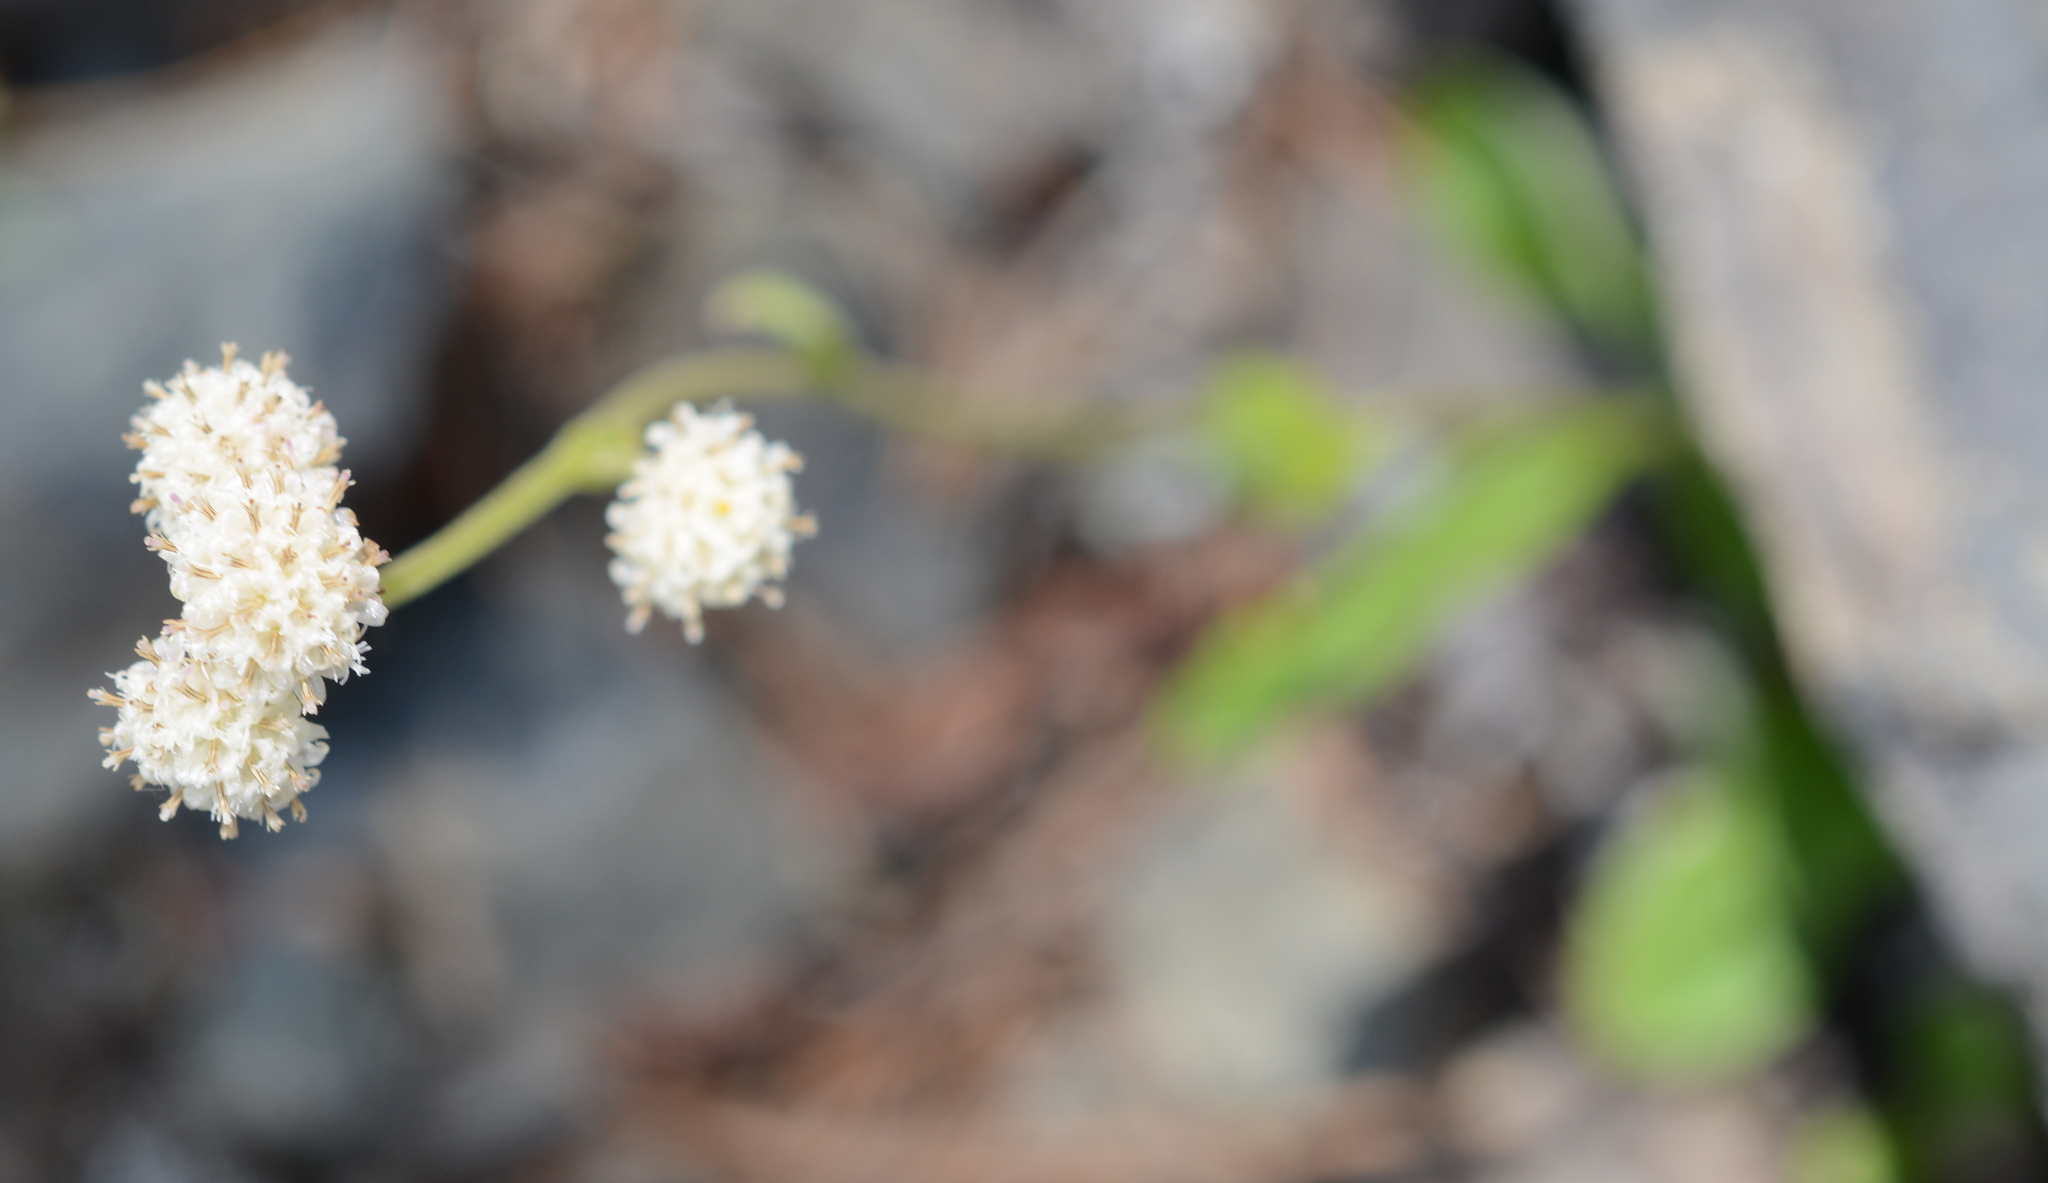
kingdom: Plantae
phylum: Tracheophyta
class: Magnoliopsida
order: Asterales
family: Asteraceae
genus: Antennaria
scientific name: Antennaria racemosa
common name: Racemose pussytoes
